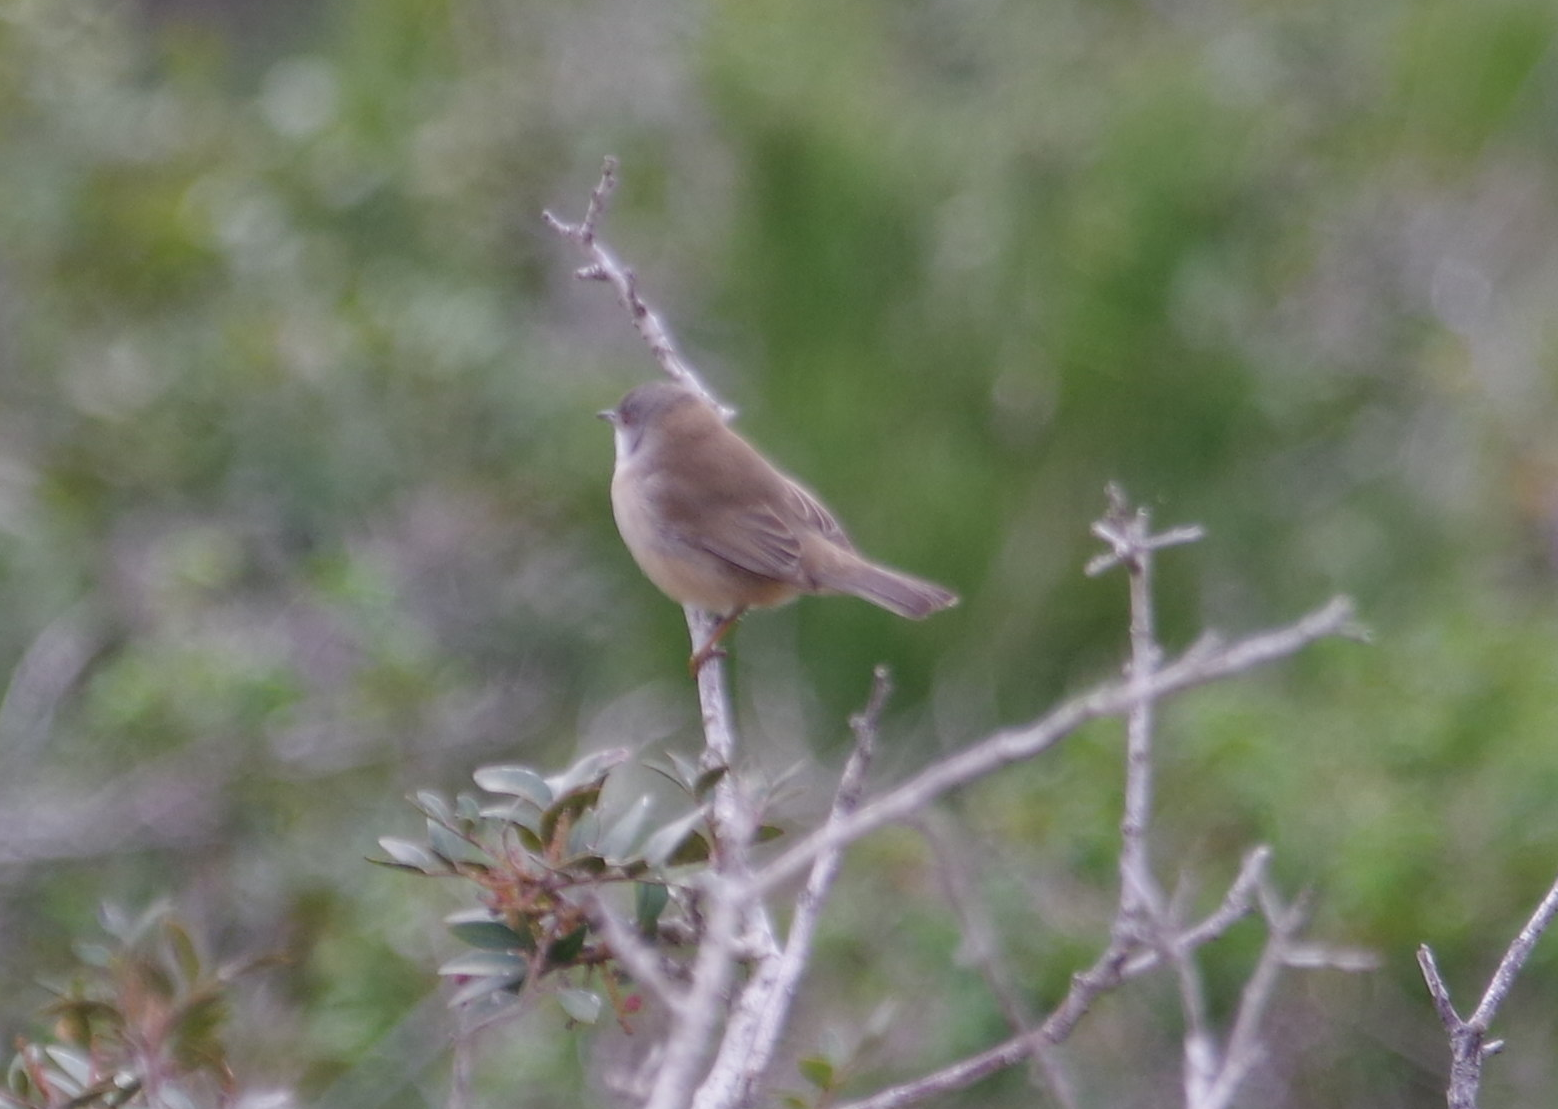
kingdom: Animalia
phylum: Chordata
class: Aves
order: Passeriformes
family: Sylviidae
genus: Curruca
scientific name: Curruca melanocephala
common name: Sardinian warbler
